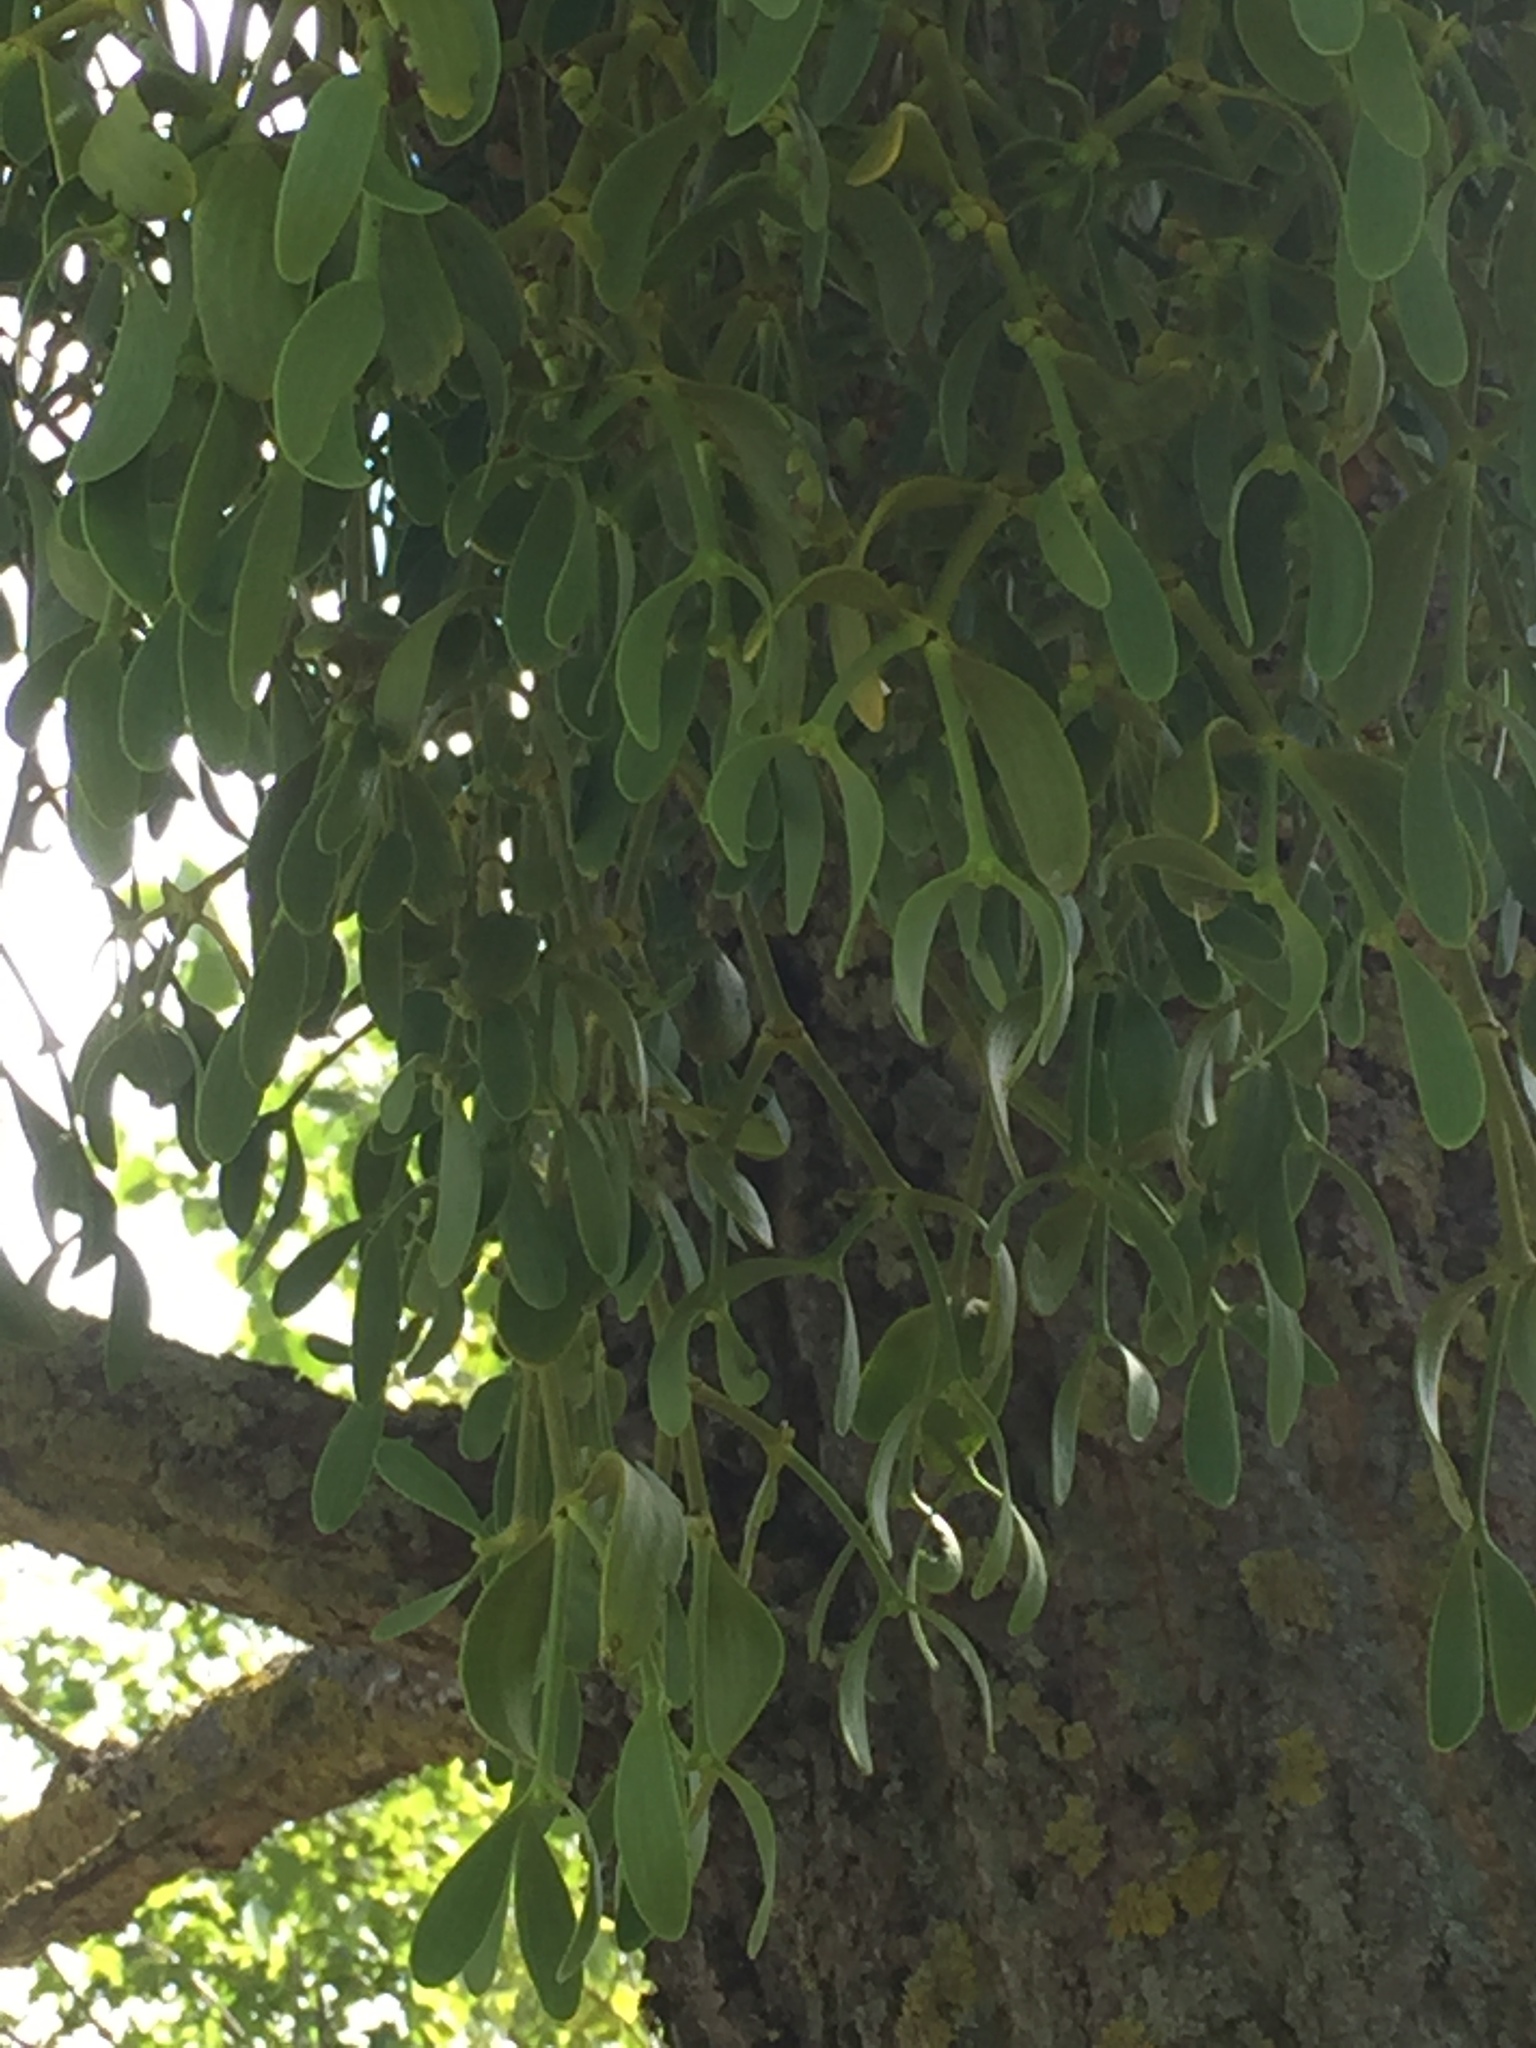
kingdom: Plantae
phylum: Tracheophyta
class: Magnoliopsida
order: Santalales
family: Viscaceae
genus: Viscum
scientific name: Viscum album
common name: Mistletoe
